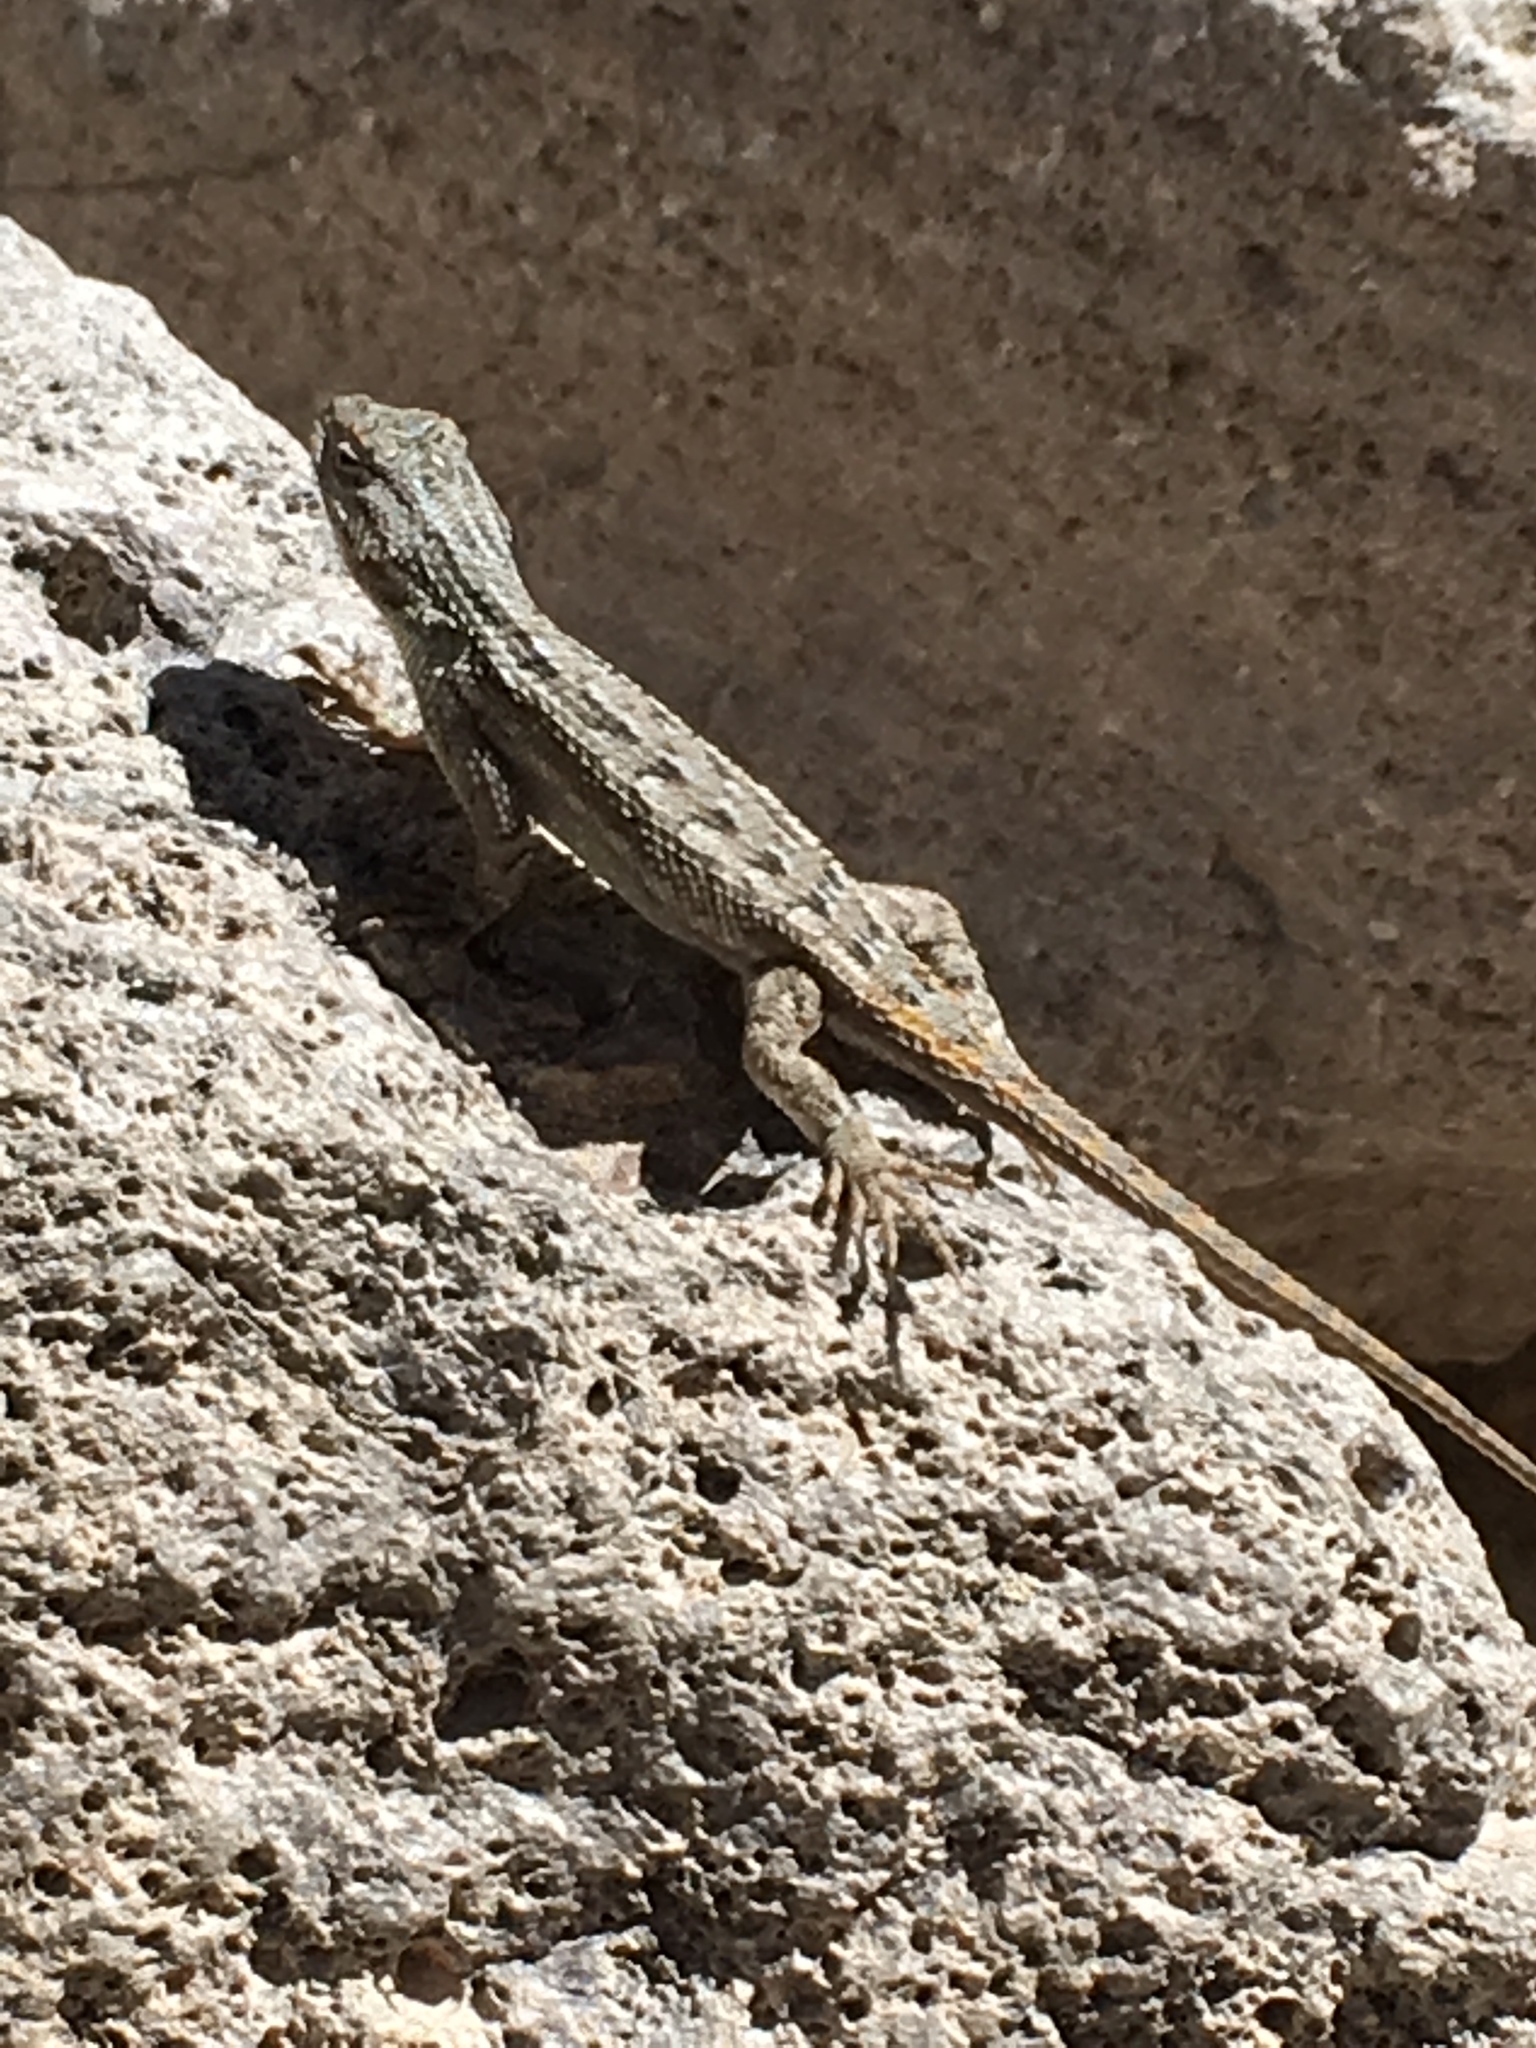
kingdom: Animalia
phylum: Chordata
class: Squamata
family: Phrynosomatidae
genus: Sceloporus
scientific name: Sceloporus cowlesi
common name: White sands prairie lizard
